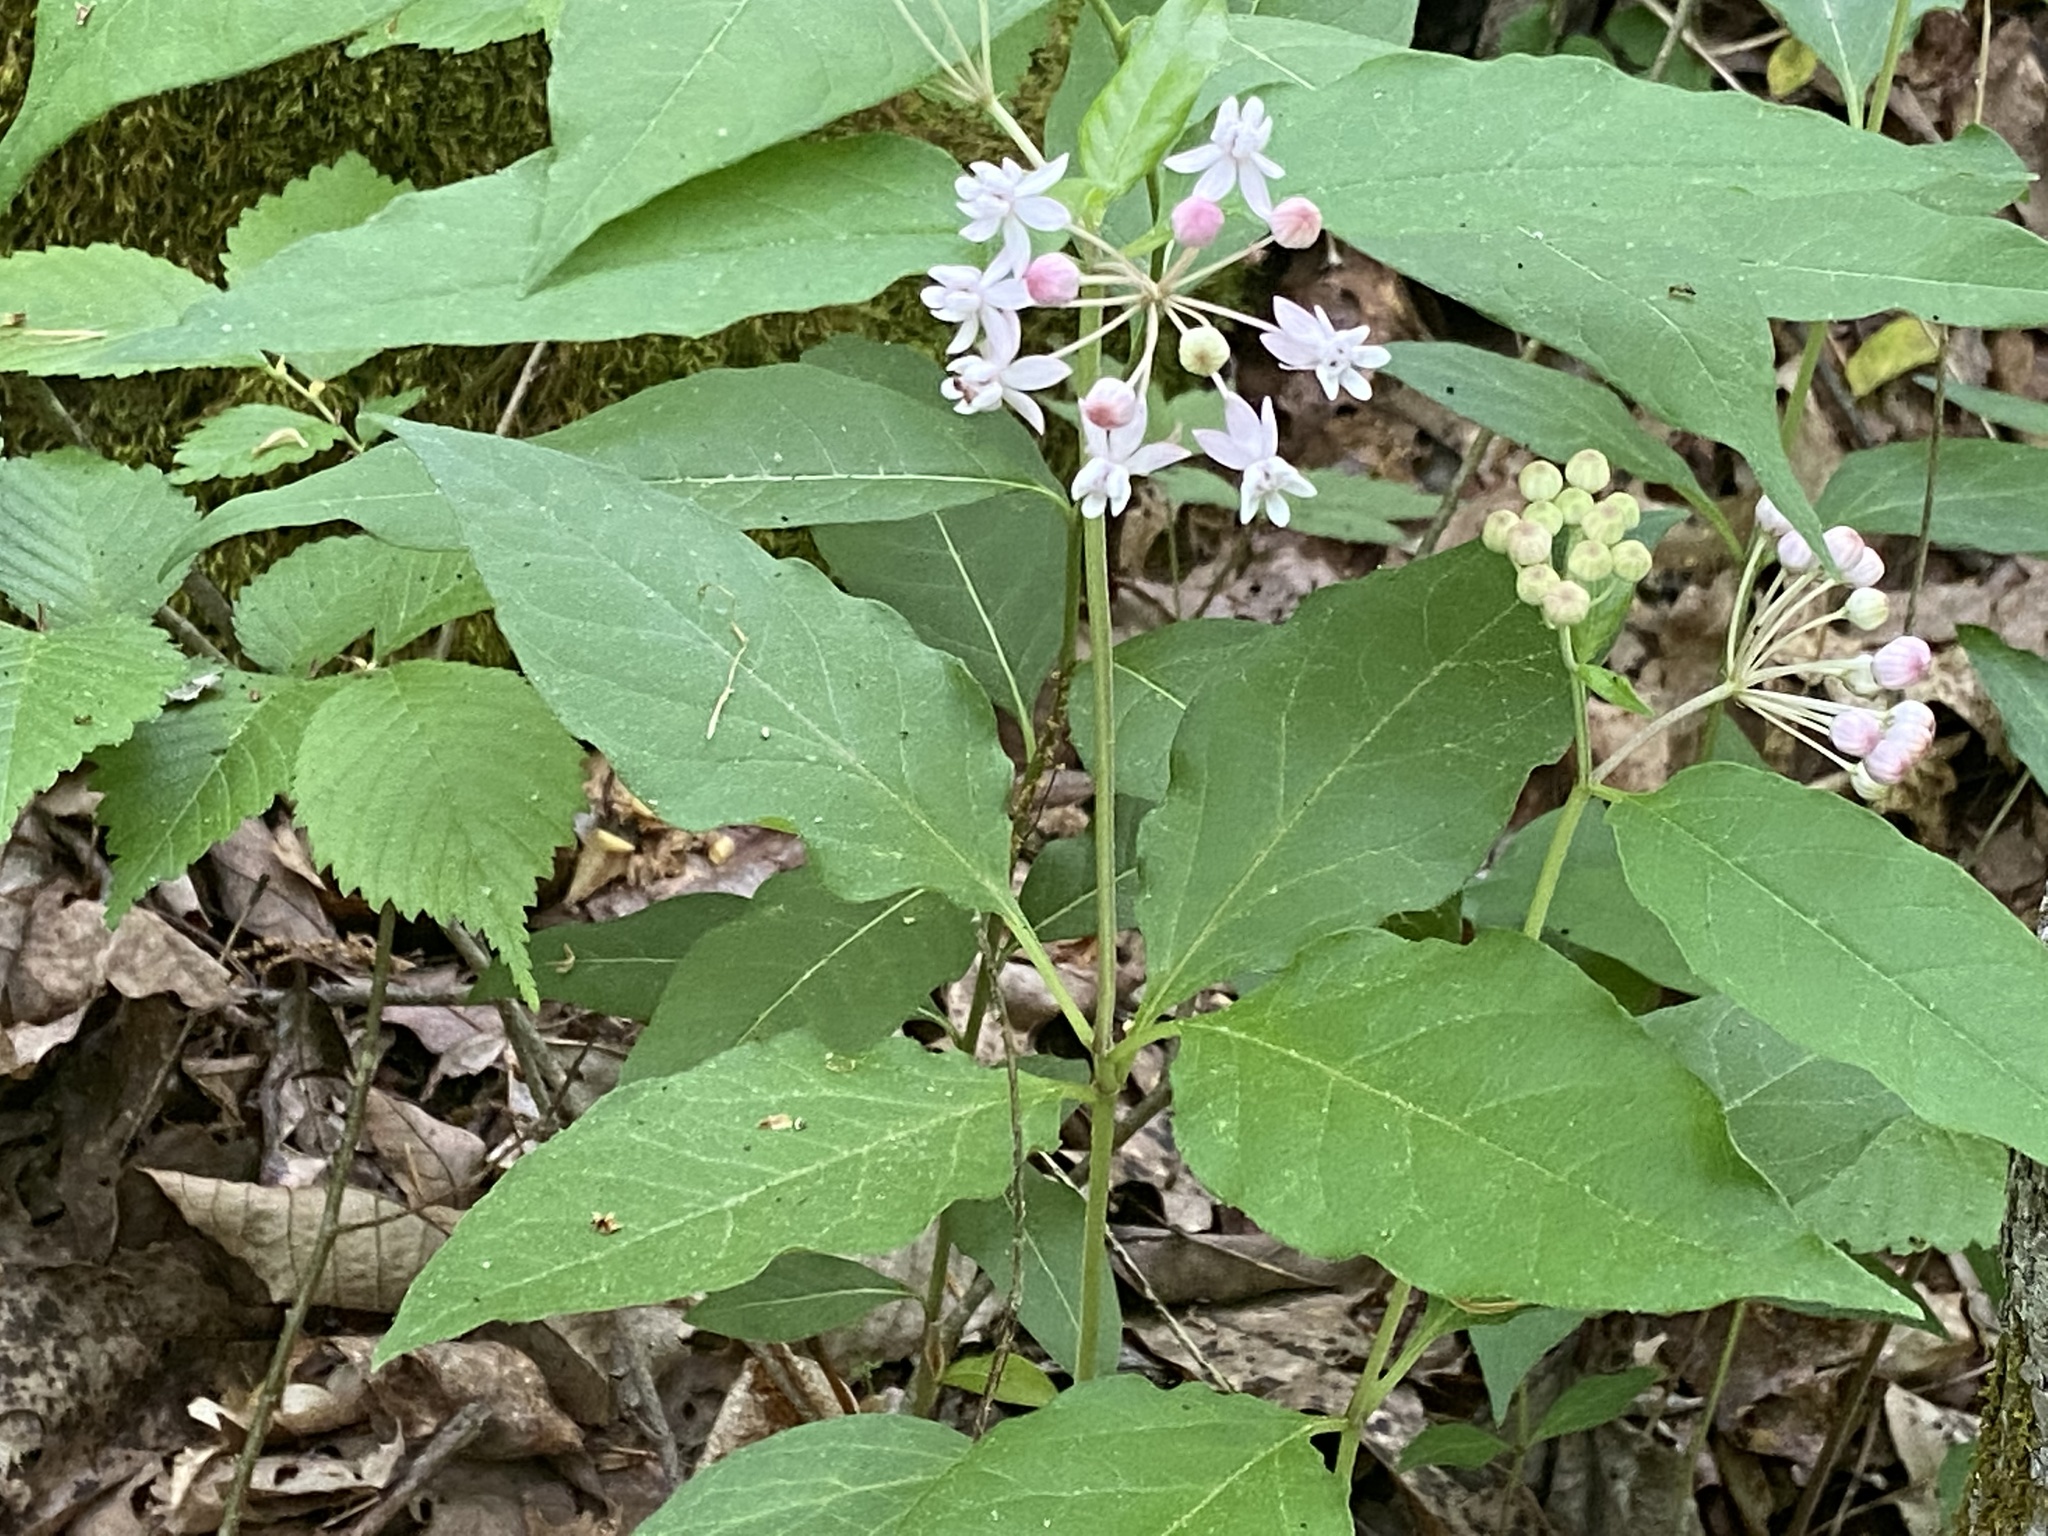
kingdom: Plantae
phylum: Tracheophyta
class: Magnoliopsida
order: Gentianales
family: Apocynaceae
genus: Asclepias
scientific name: Asclepias quadrifolia
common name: Whorled milkweed
